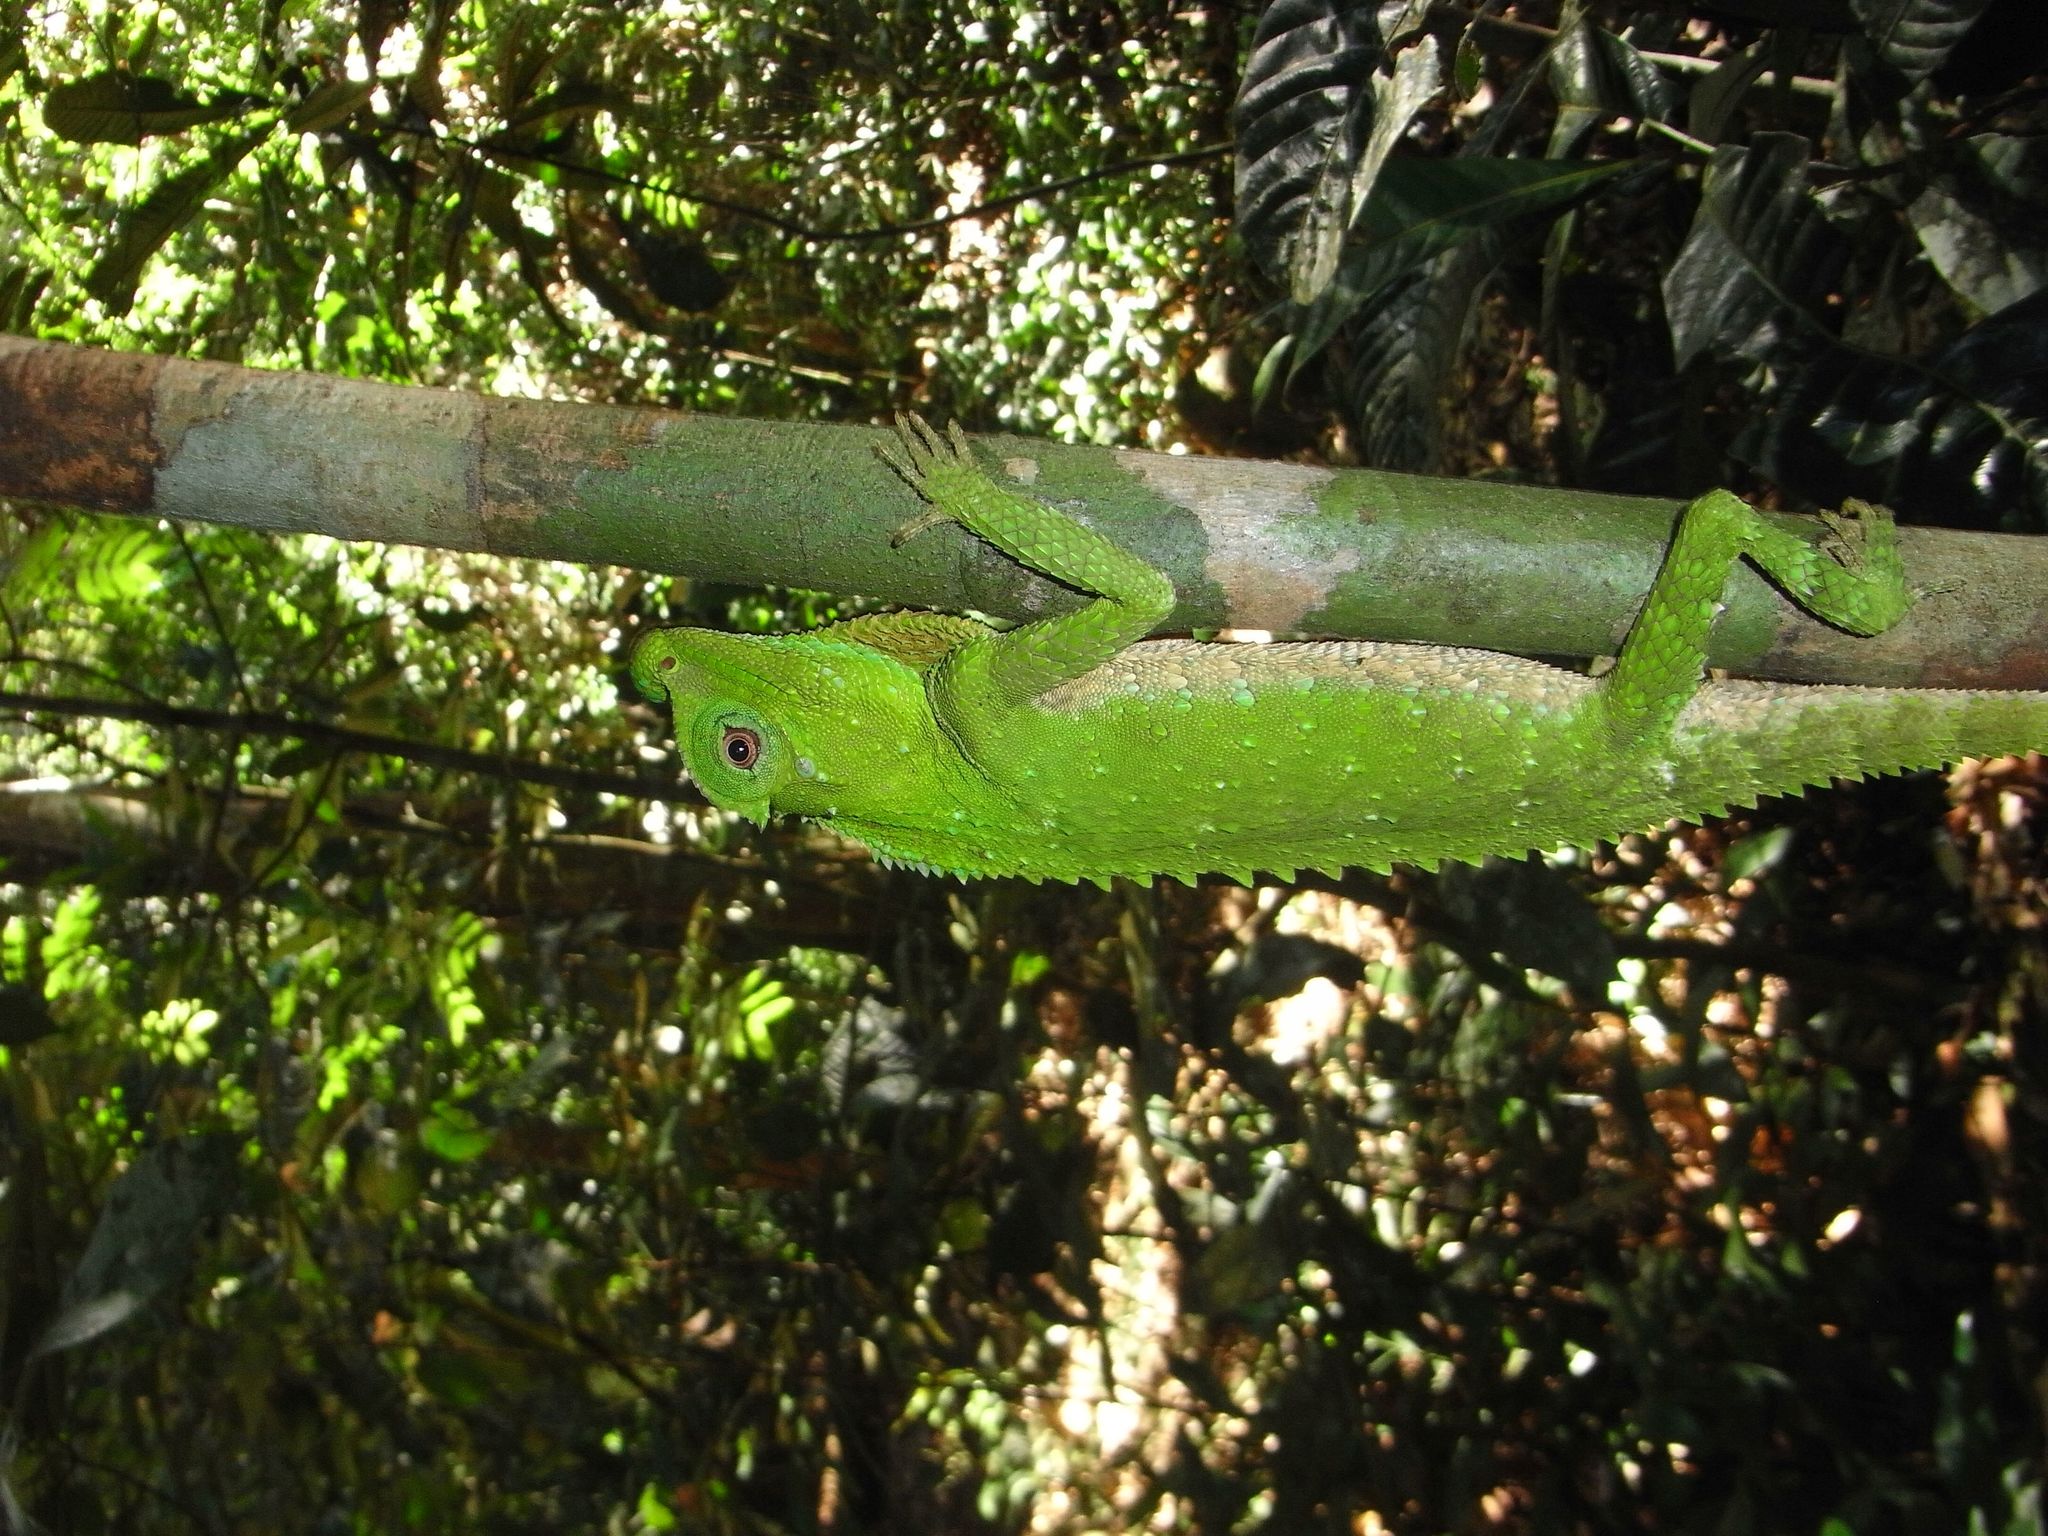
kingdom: Animalia
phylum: Chordata
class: Squamata
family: Agamidae
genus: Lyriocephalus
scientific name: Lyriocephalus scutatus
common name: Hump snout lizard
